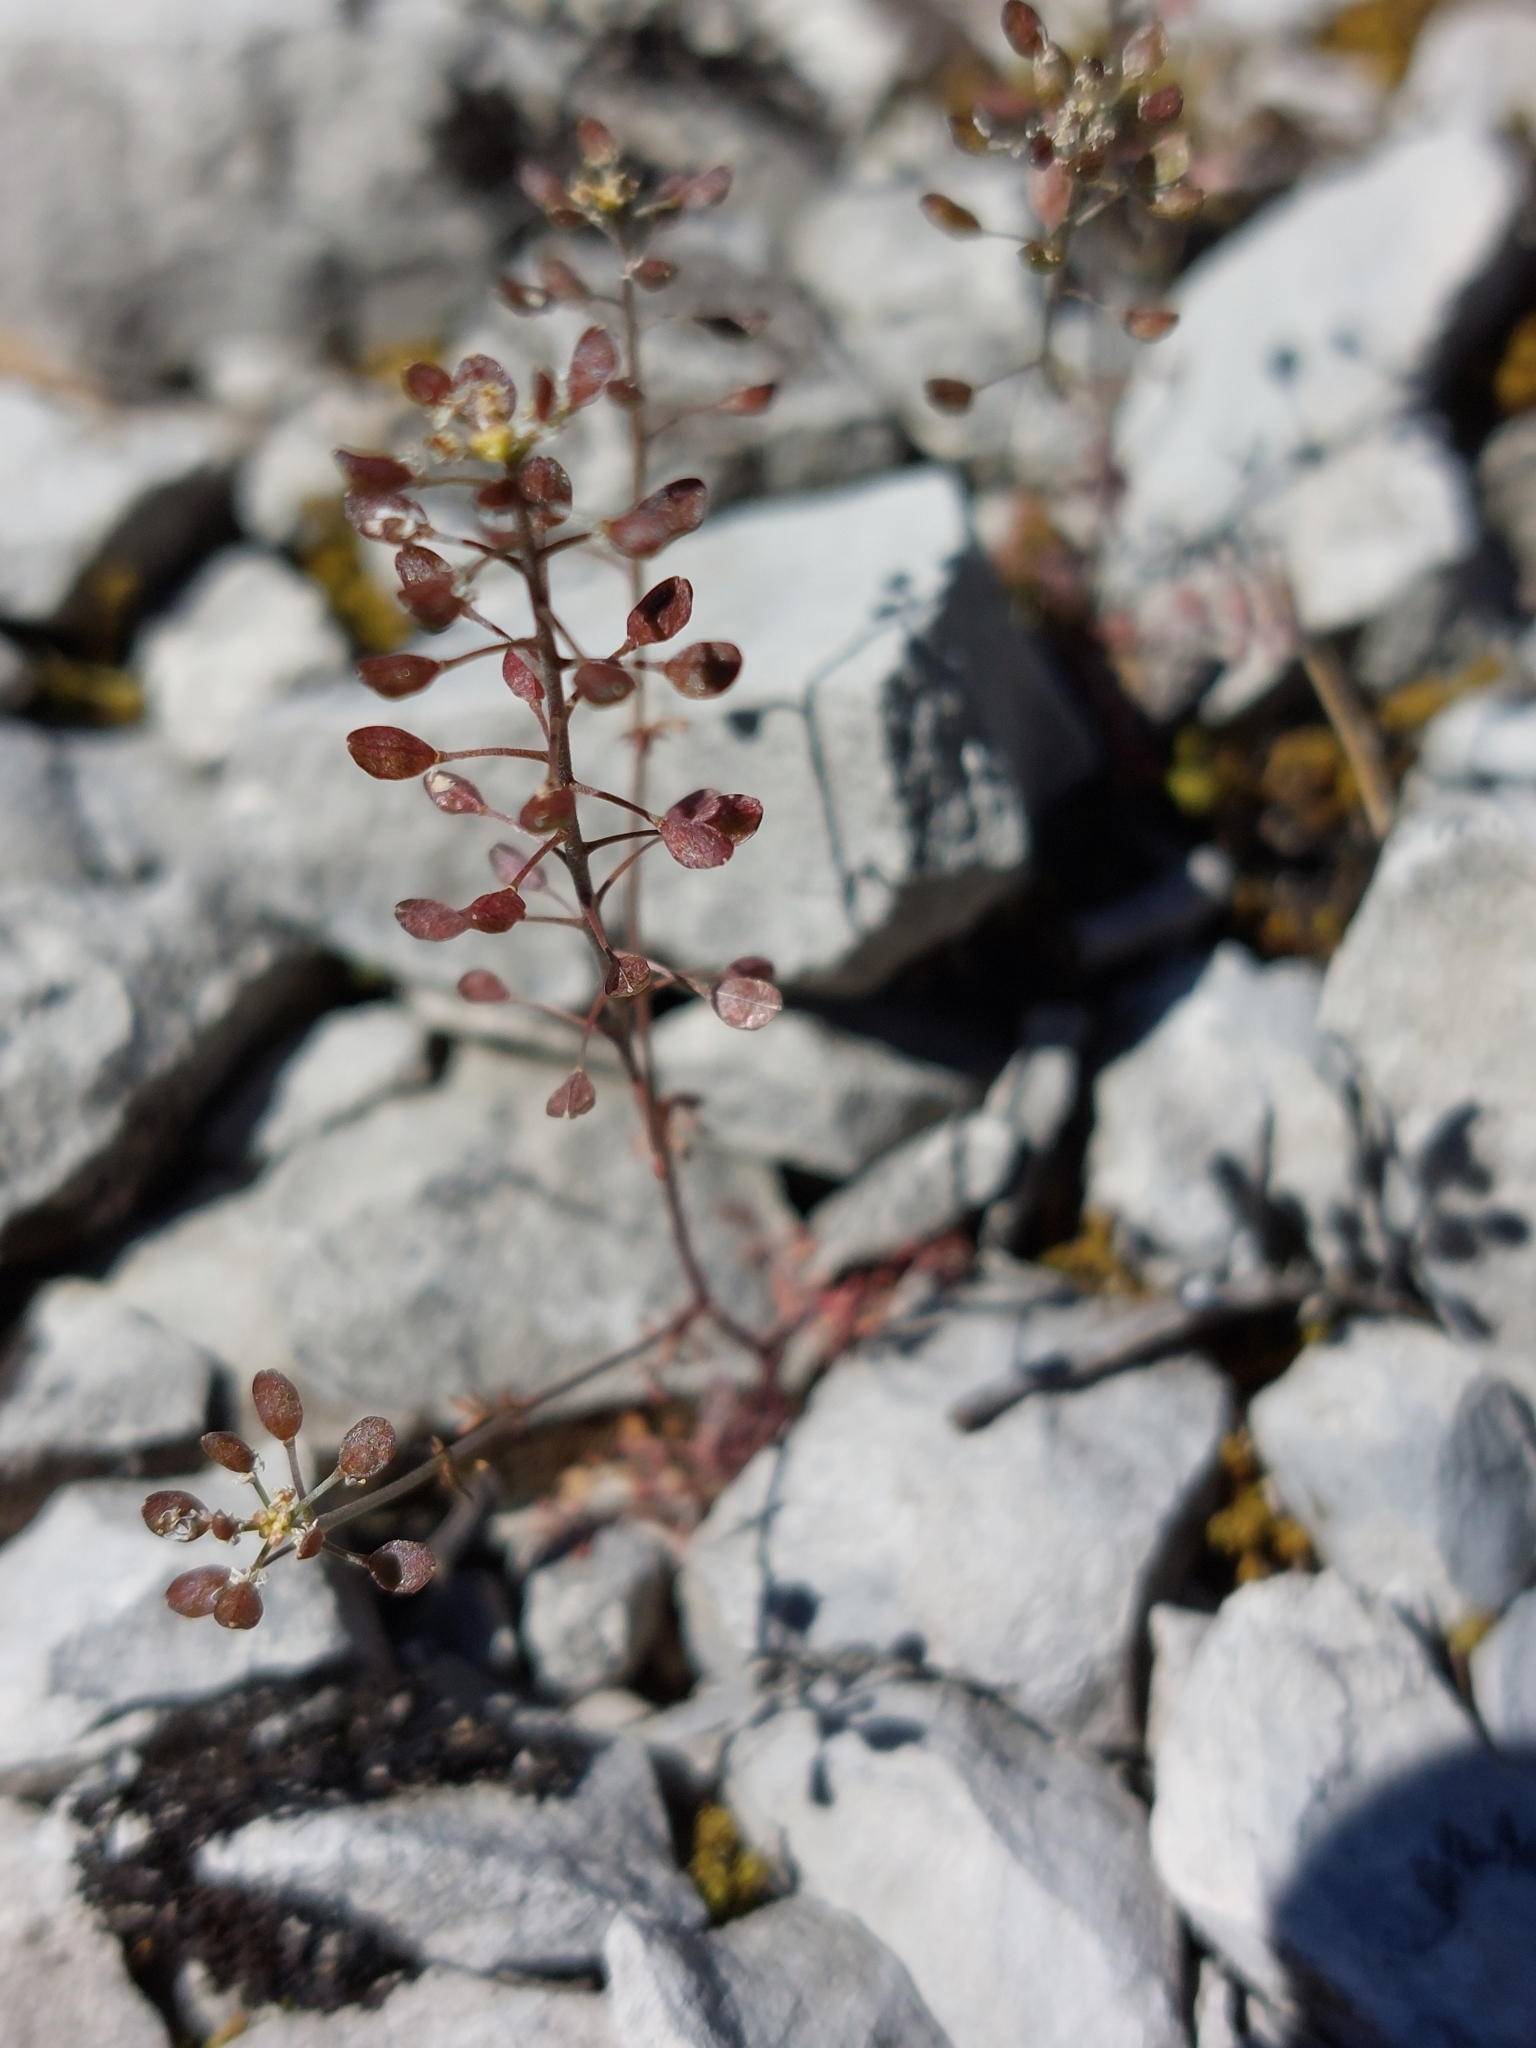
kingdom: Plantae
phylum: Tracheophyta
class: Magnoliopsida
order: Brassicales
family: Brassicaceae
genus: Hornungia
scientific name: Hornungia petraea
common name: Hutchinsia
